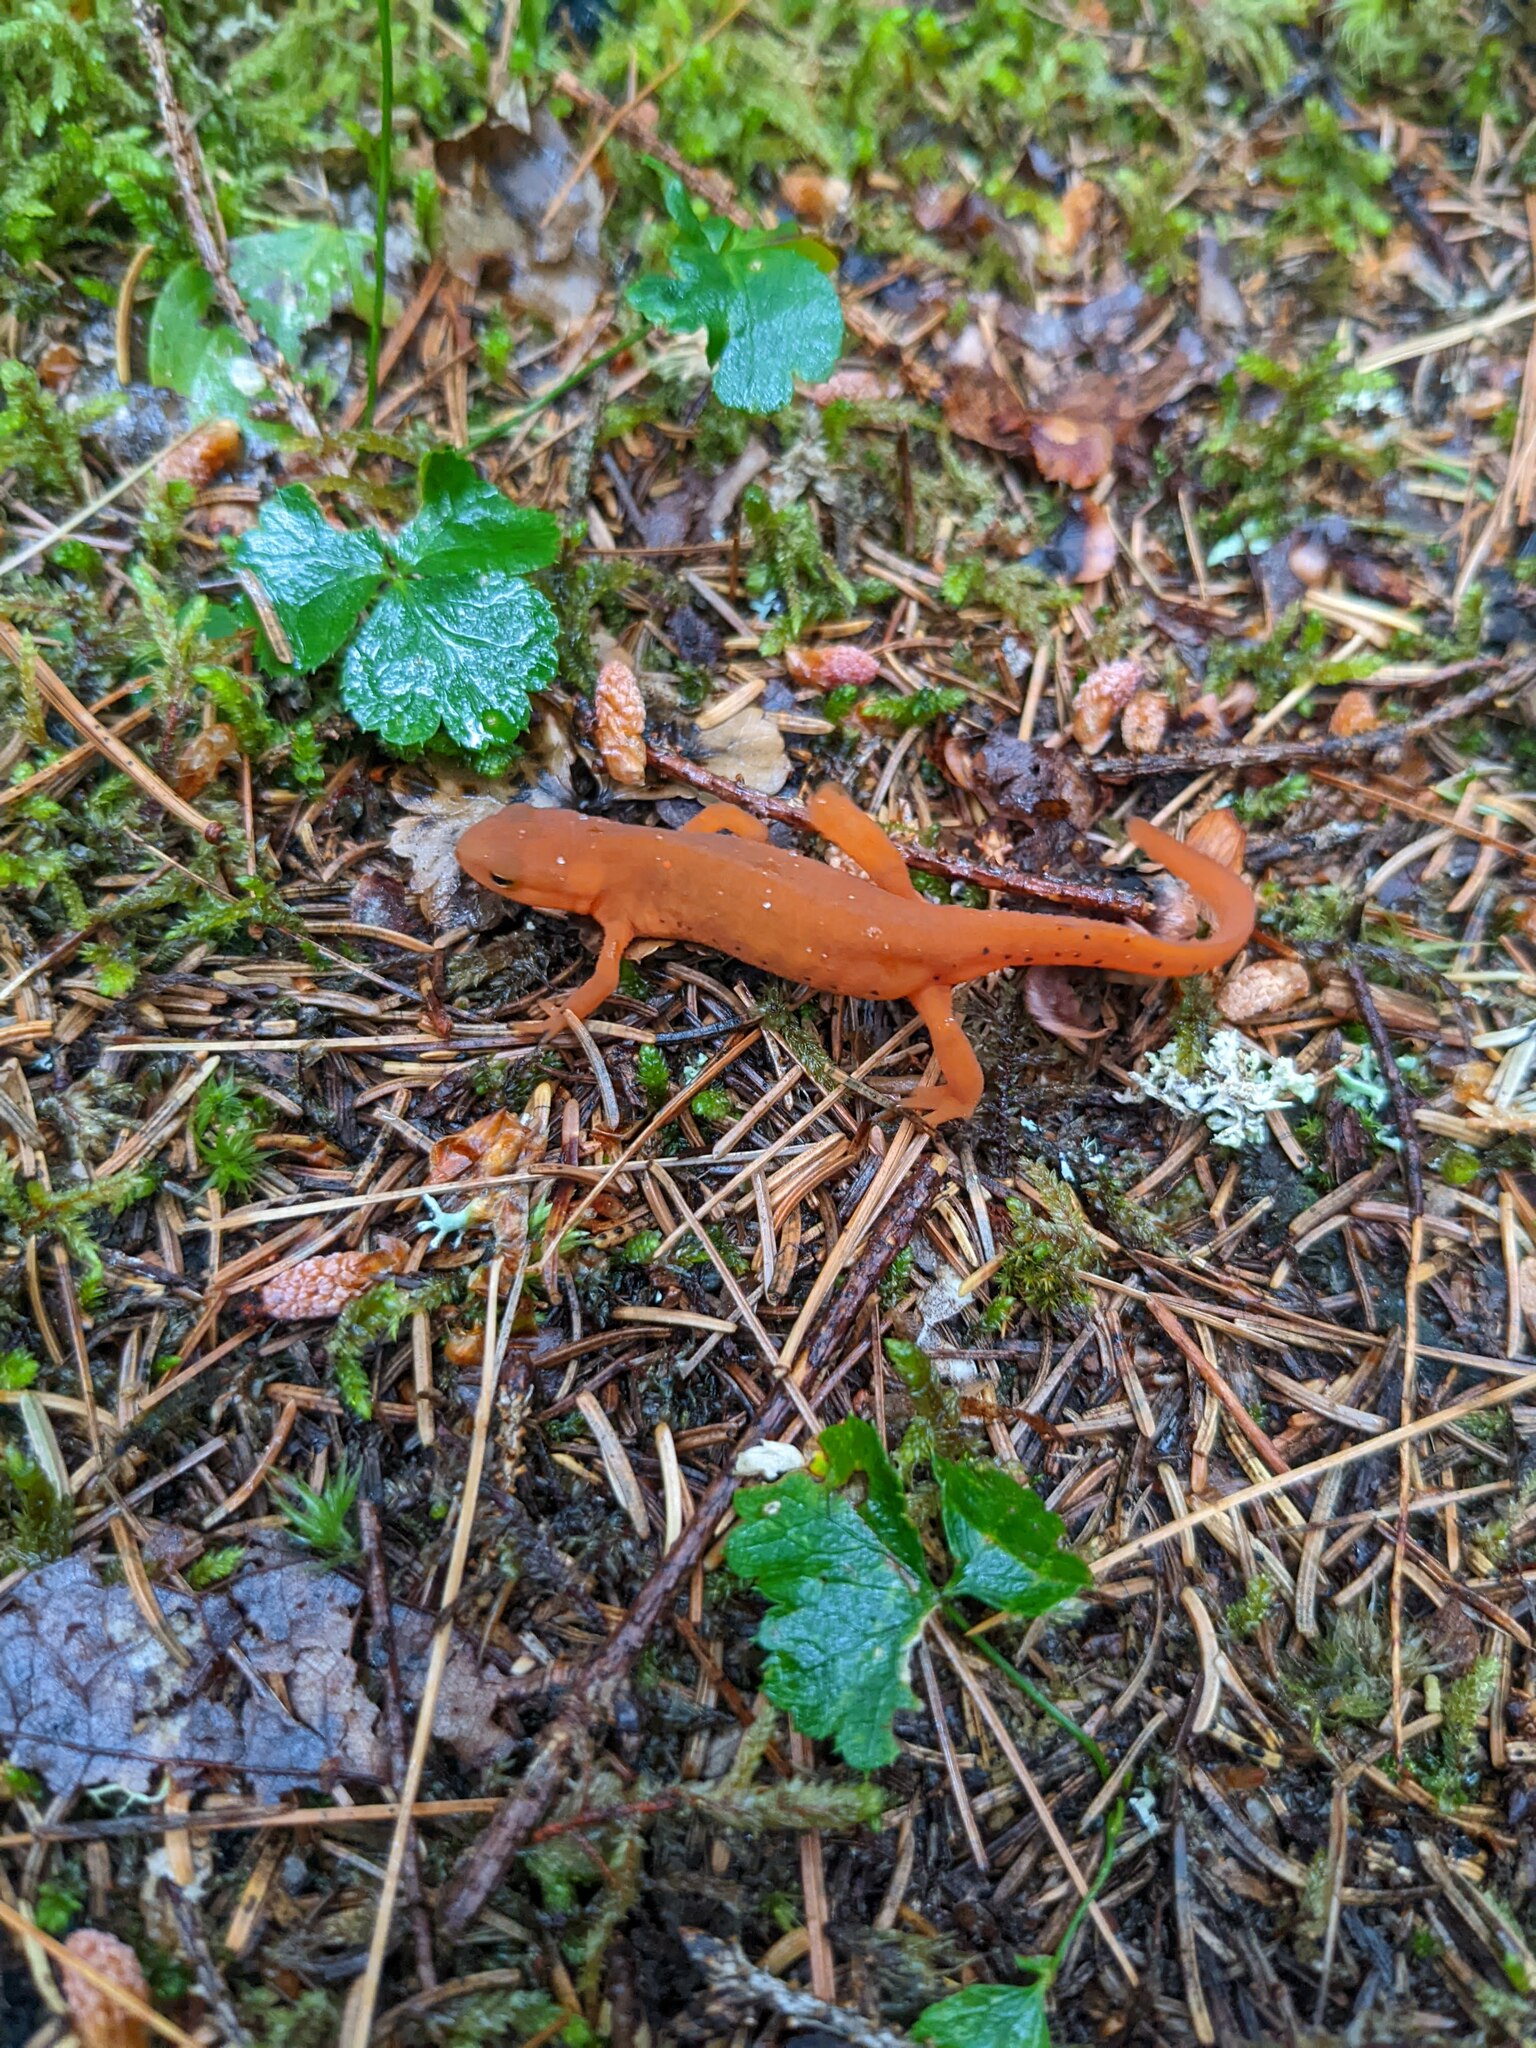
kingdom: Plantae
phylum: Tracheophyta
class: Magnoliopsida
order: Ranunculales
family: Ranunculaceae
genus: Coptis
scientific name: Coptis trifolia
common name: Canker-root
